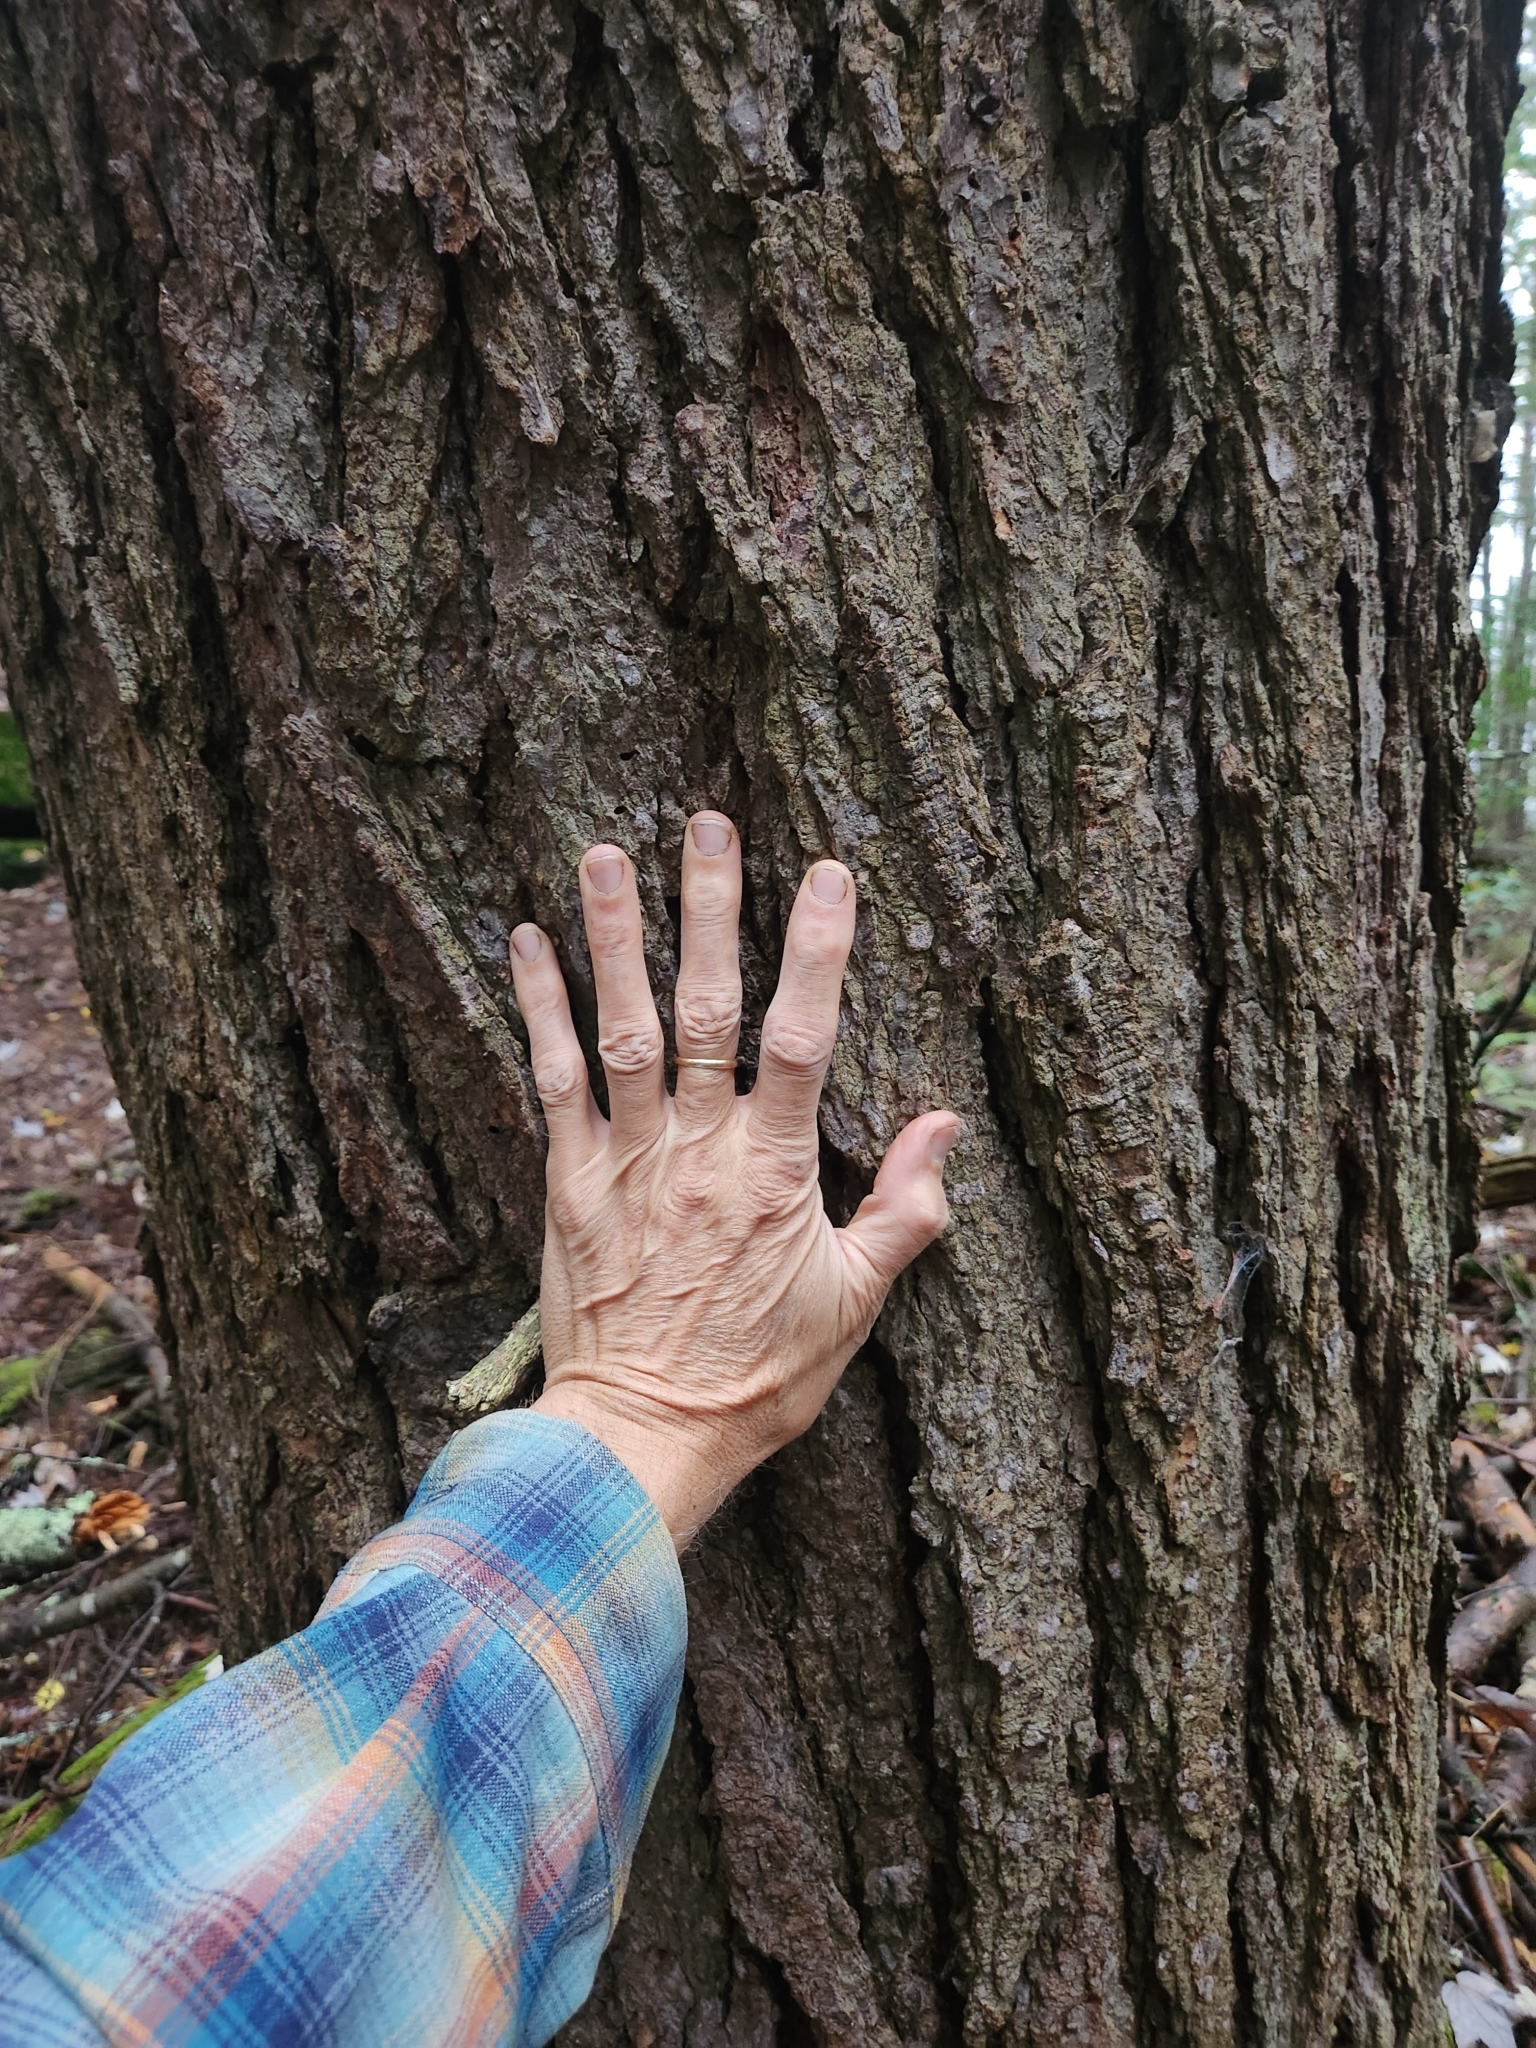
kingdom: Plantae
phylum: Tracheophyta
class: Pinopsida
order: Pinales
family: Pinaceae
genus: Tsuga
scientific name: Tsuga canadensis
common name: Eastern hemlock
